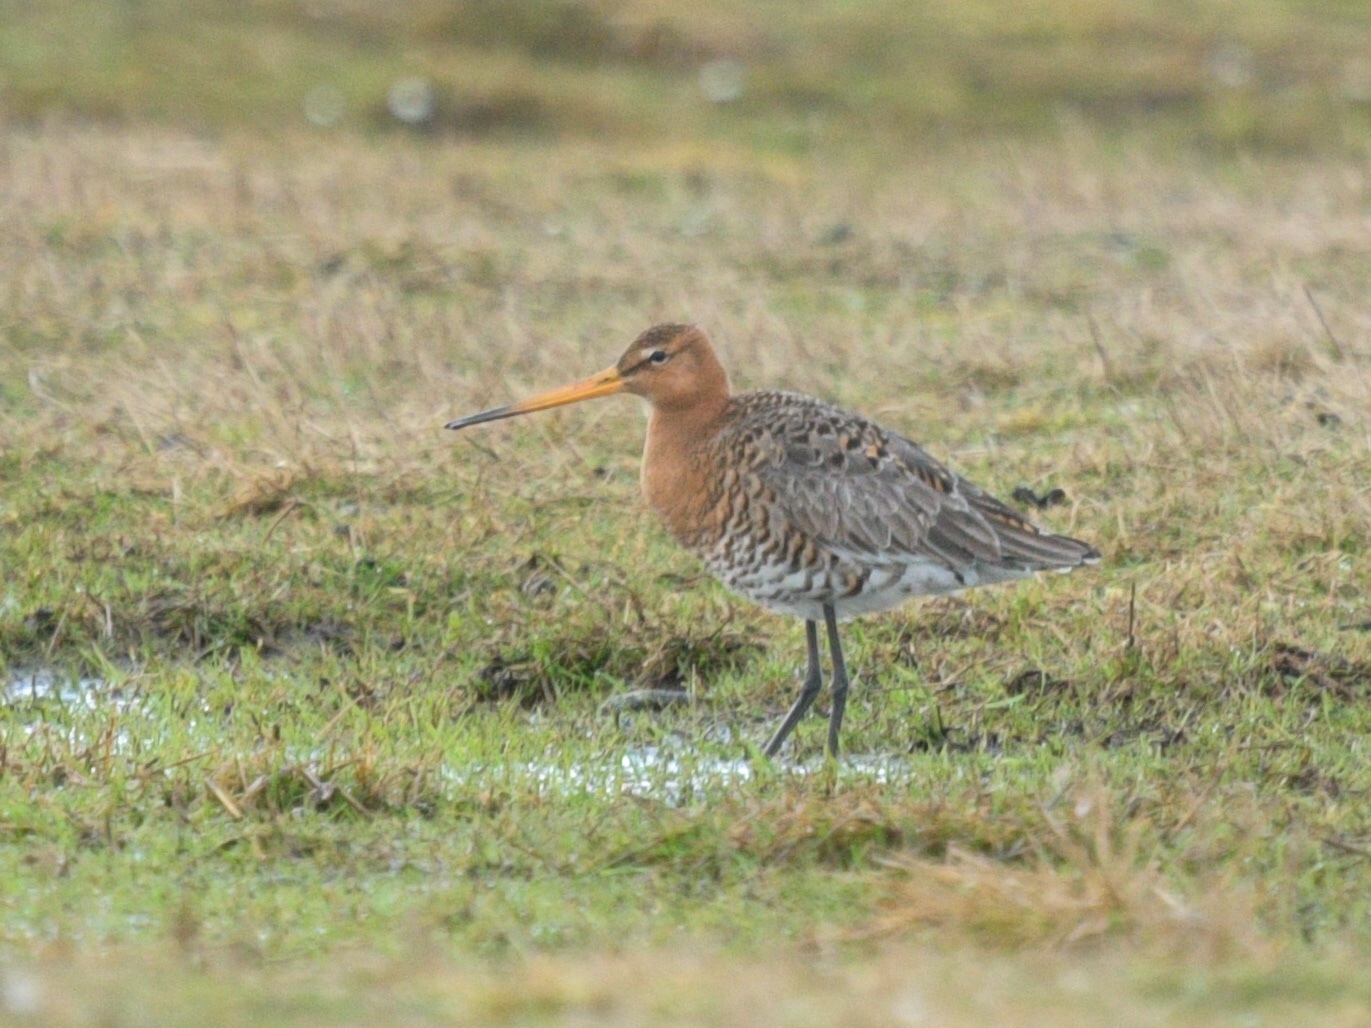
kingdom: Animalia
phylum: Chordata
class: Aves
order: Charadriiformes
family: Scolopacidae
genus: Limosa
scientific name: Limosa limosa
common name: Black-tailed godwit
